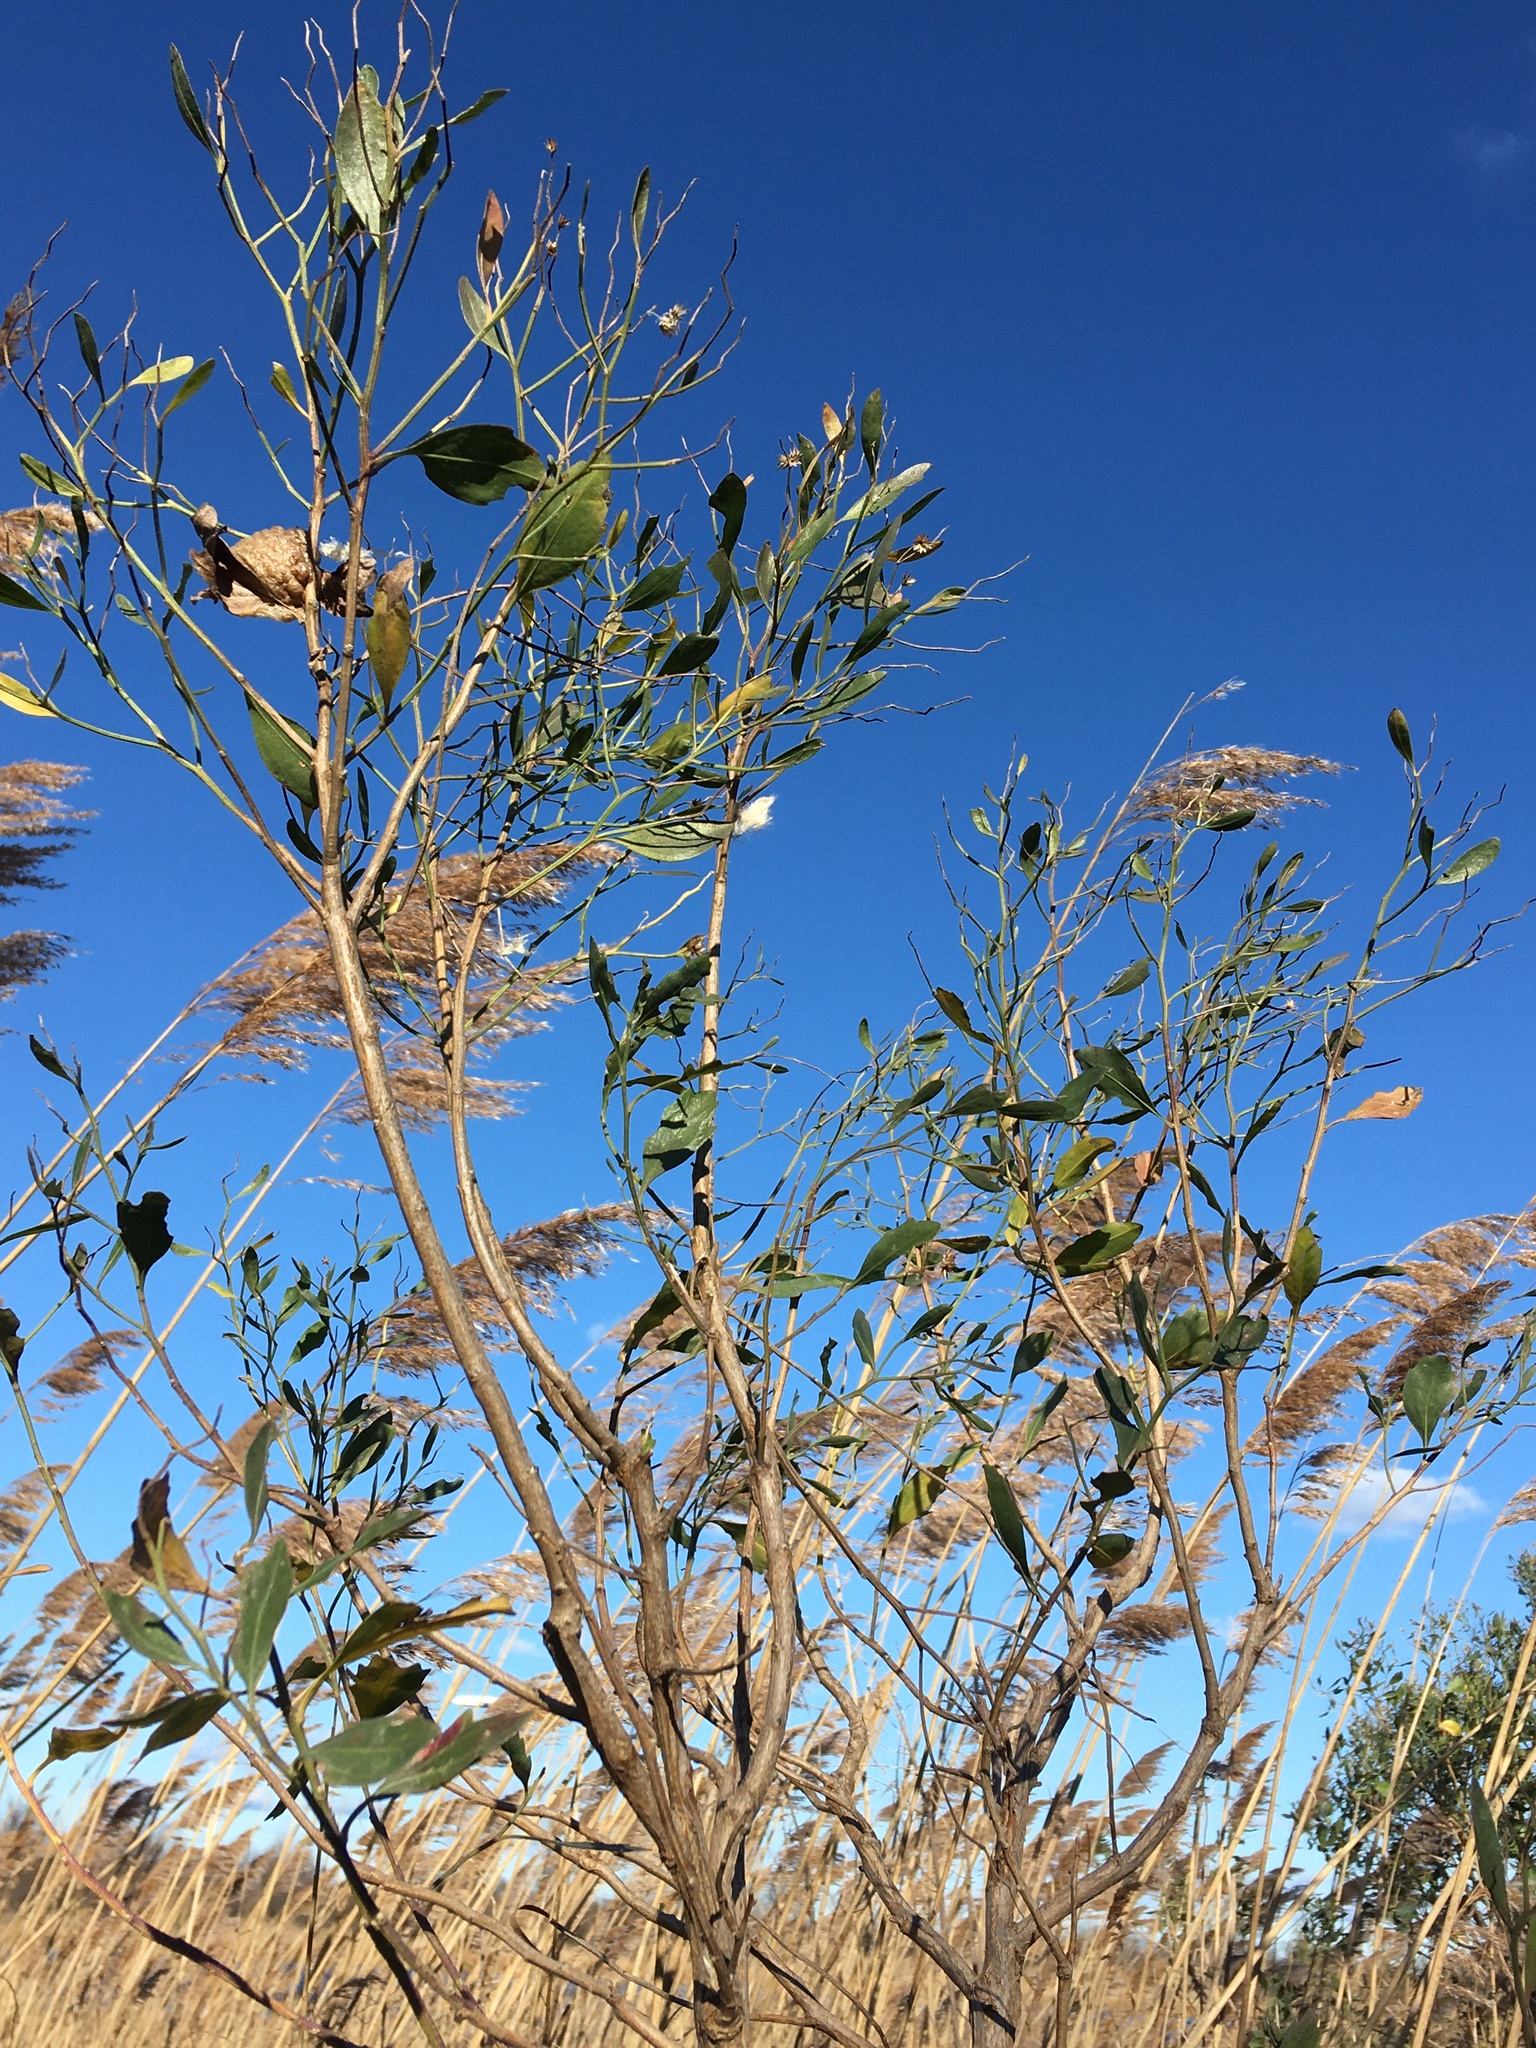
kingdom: Plantae
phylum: Tracheophyta
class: Magnoliopsida
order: Asterales
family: Asteraceae
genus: Baccharis
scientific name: Baccharis halimifolia
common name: Eastern baccharis
